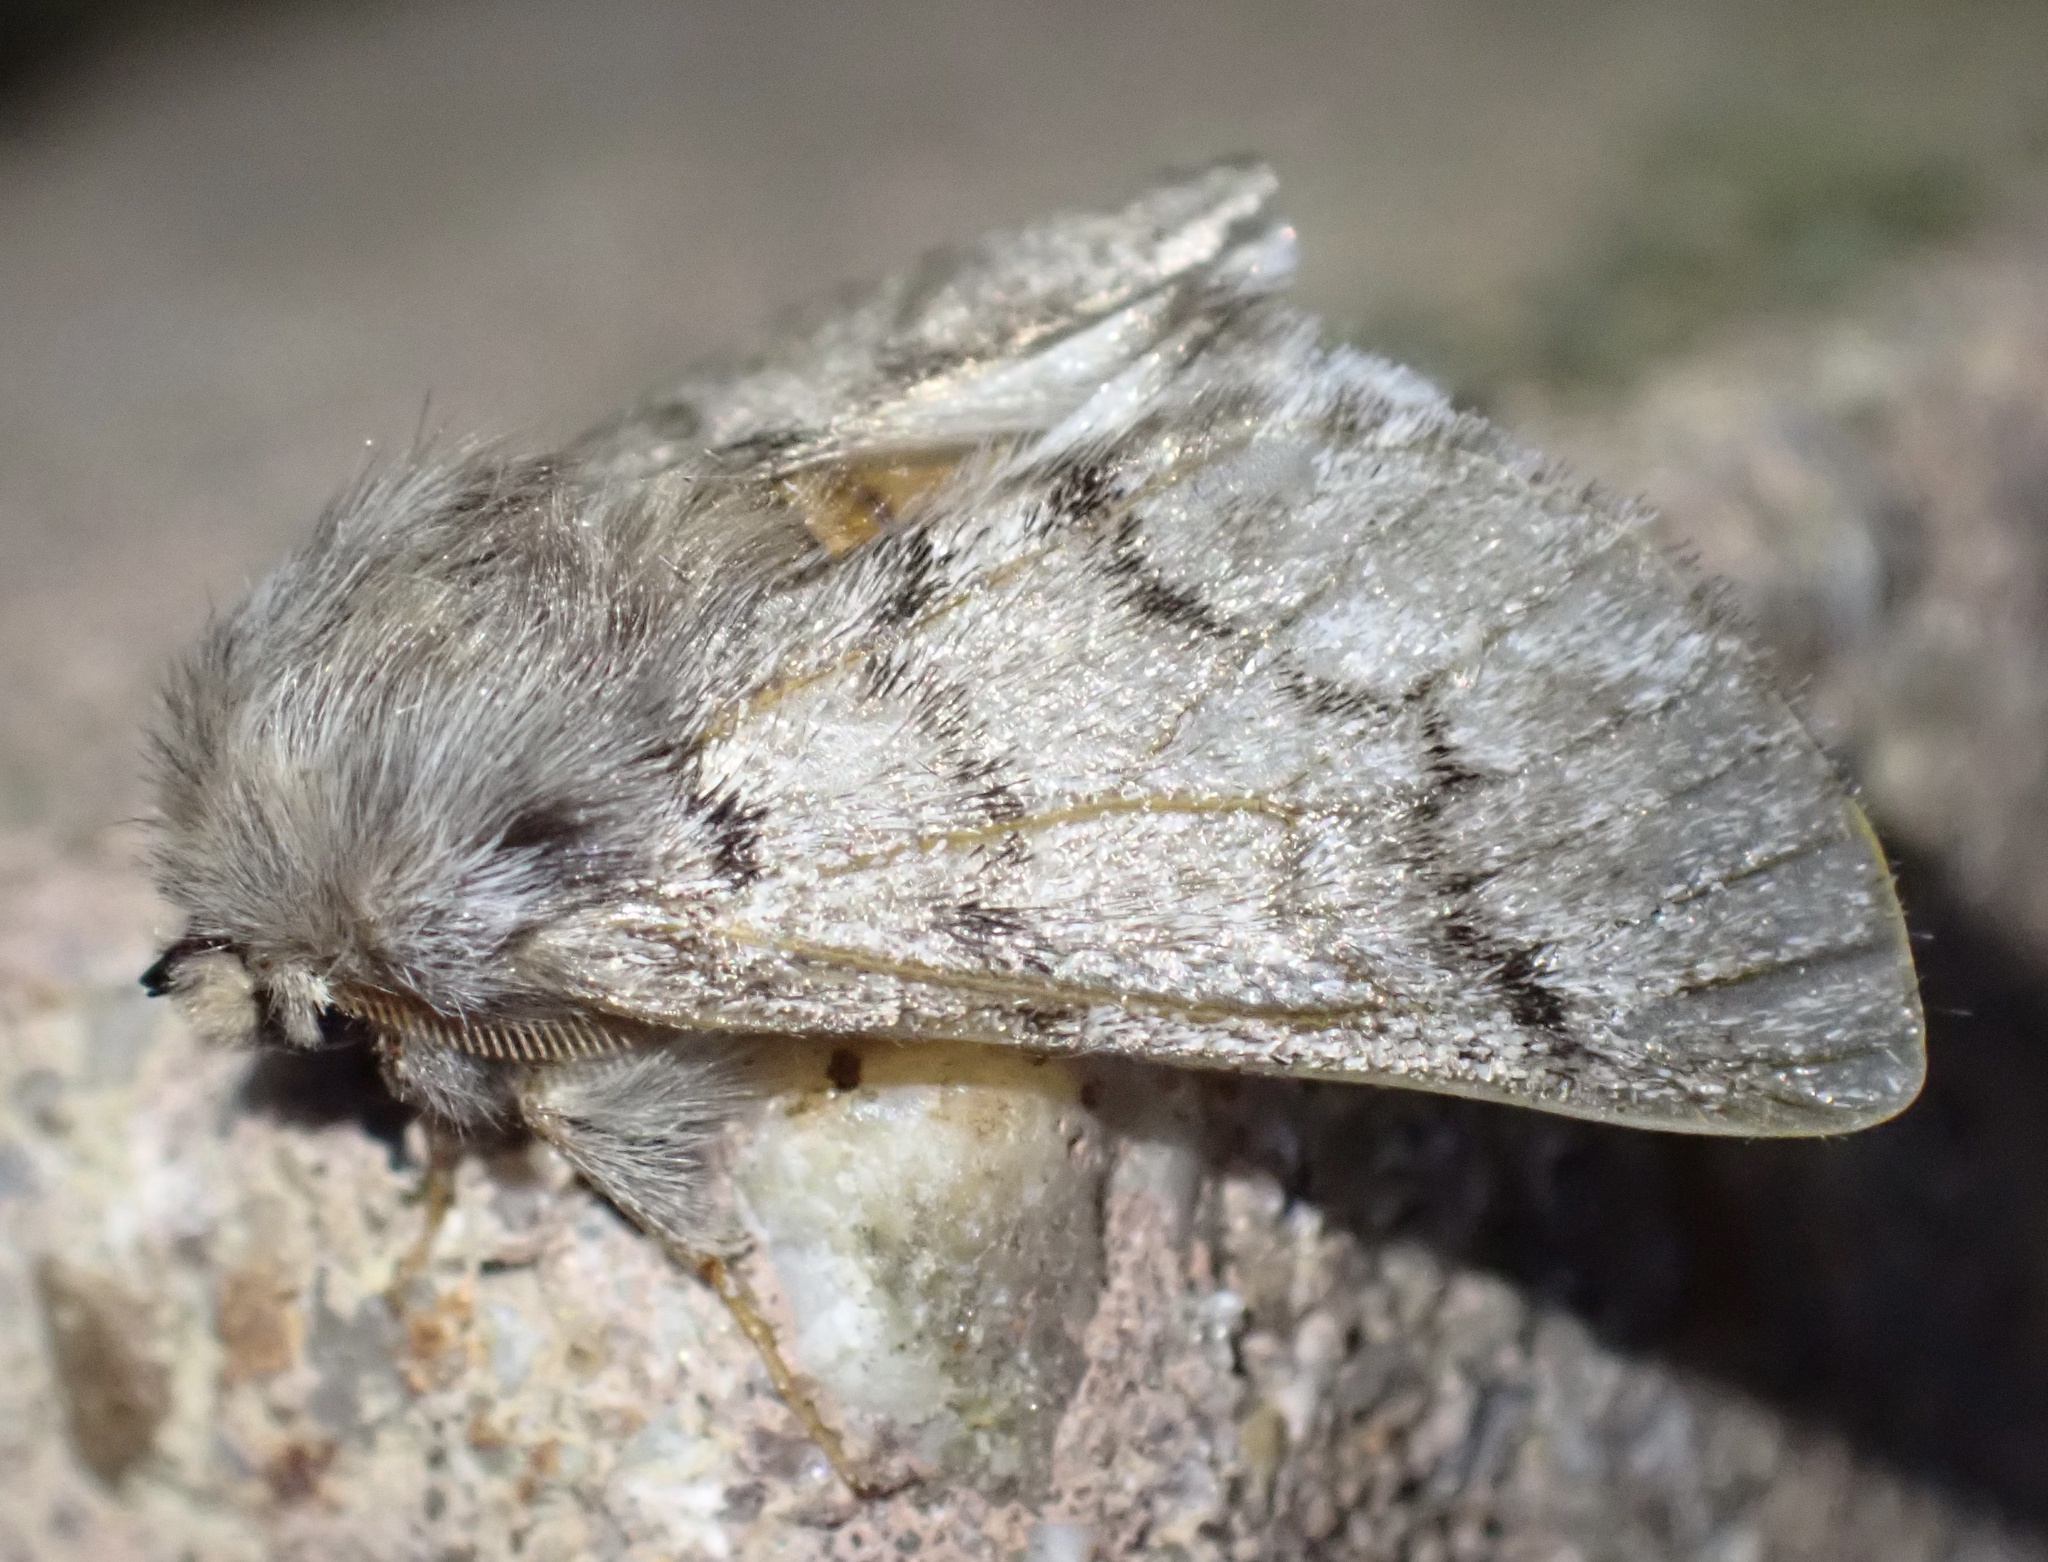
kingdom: Animalia
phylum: Arthropoda
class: Insecta
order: Lepidoptera
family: Notodontidae
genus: Thaumetopoea
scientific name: Thaumetopoea pityocampa
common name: Pine processionary
